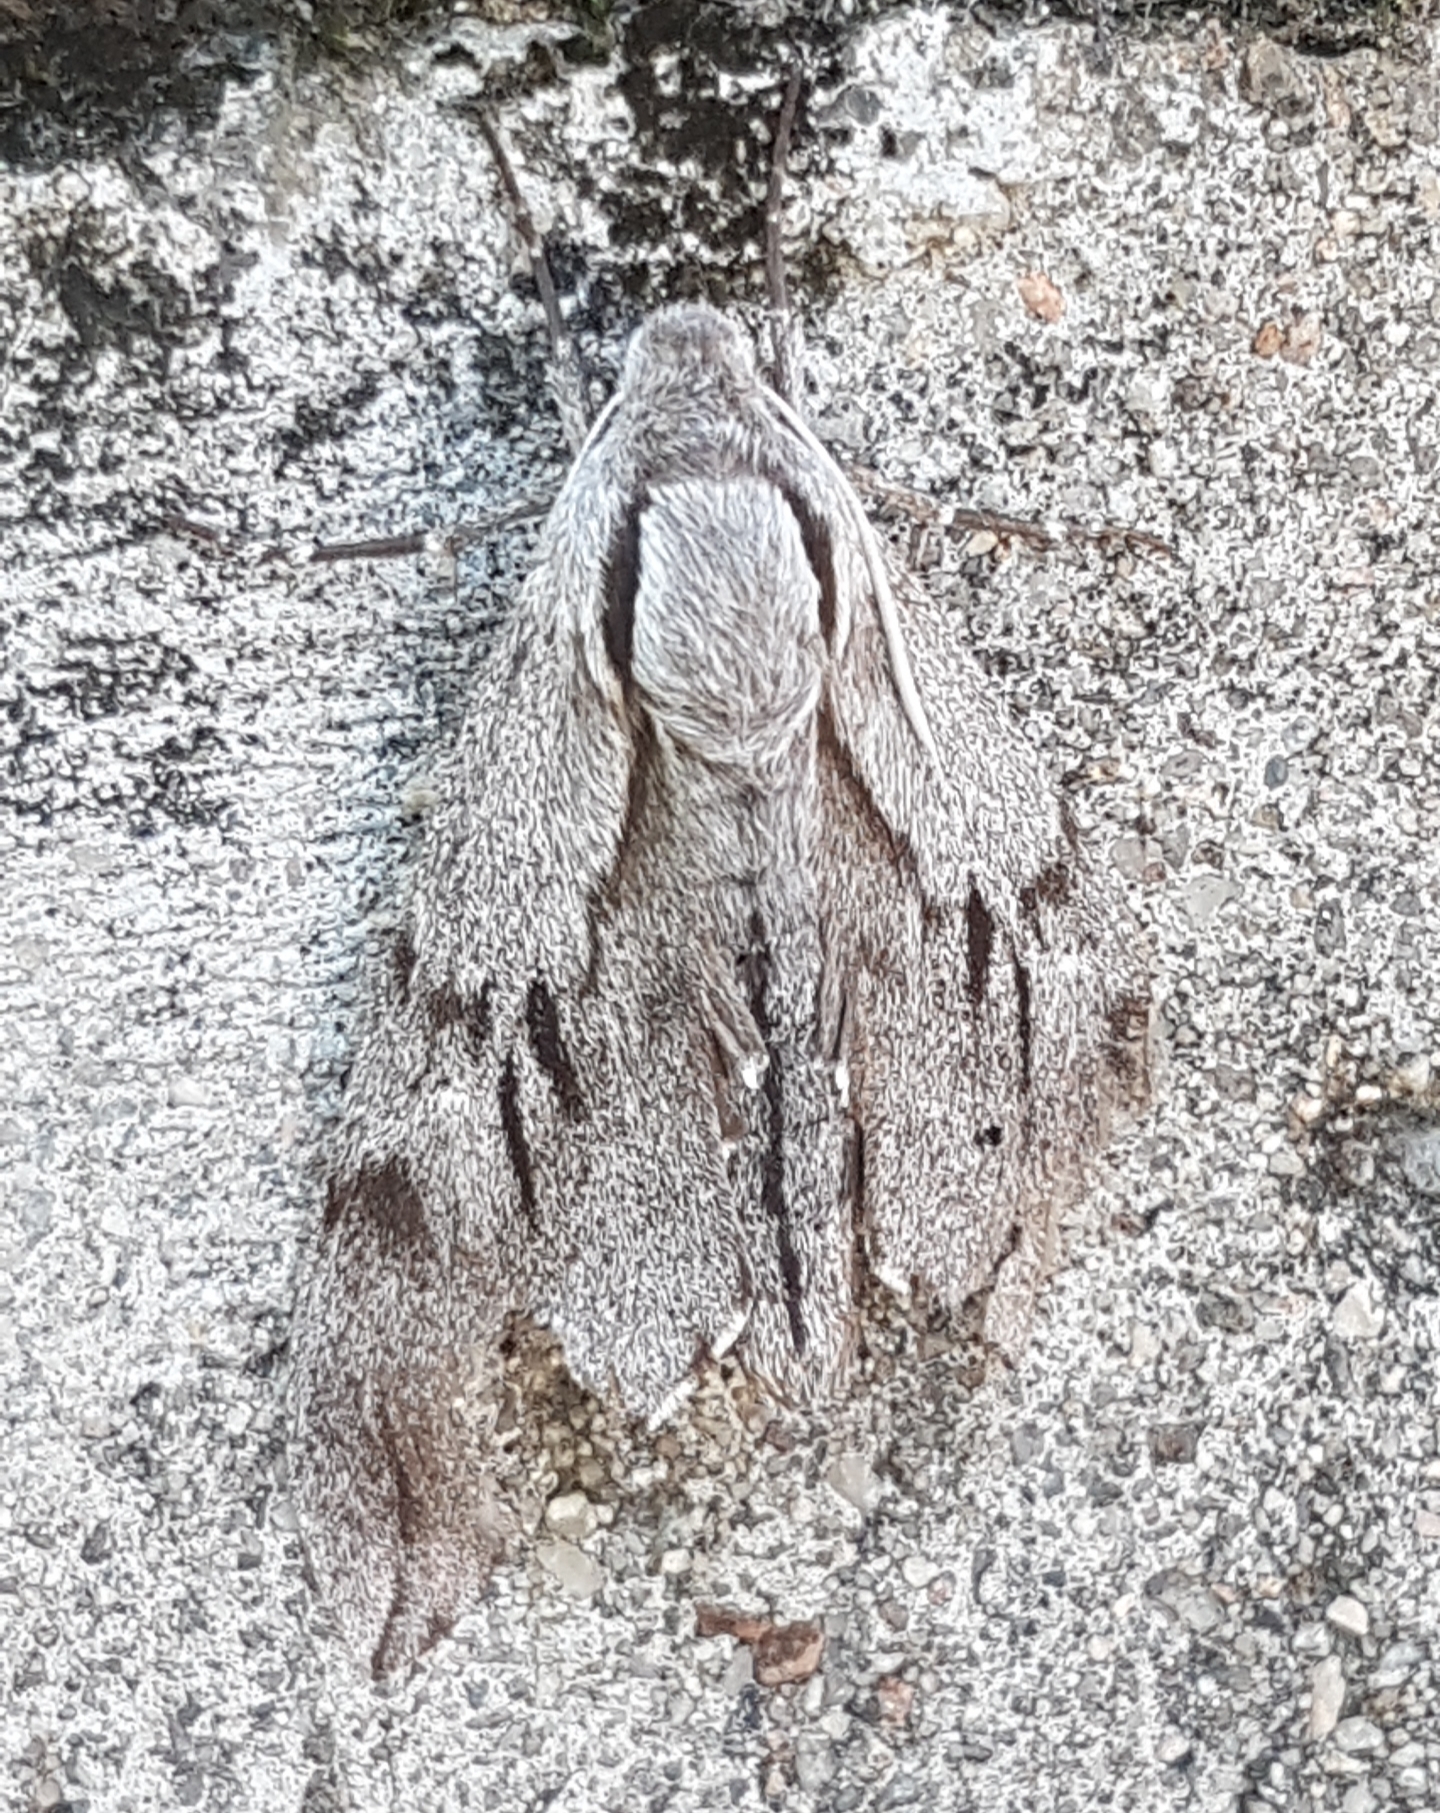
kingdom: Animalia
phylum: Arthropoda
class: Insecta
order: Lepidoptera
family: Sphingidae
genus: Sphinx
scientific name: Sphinx pinastri
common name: Pine hawk-moth
